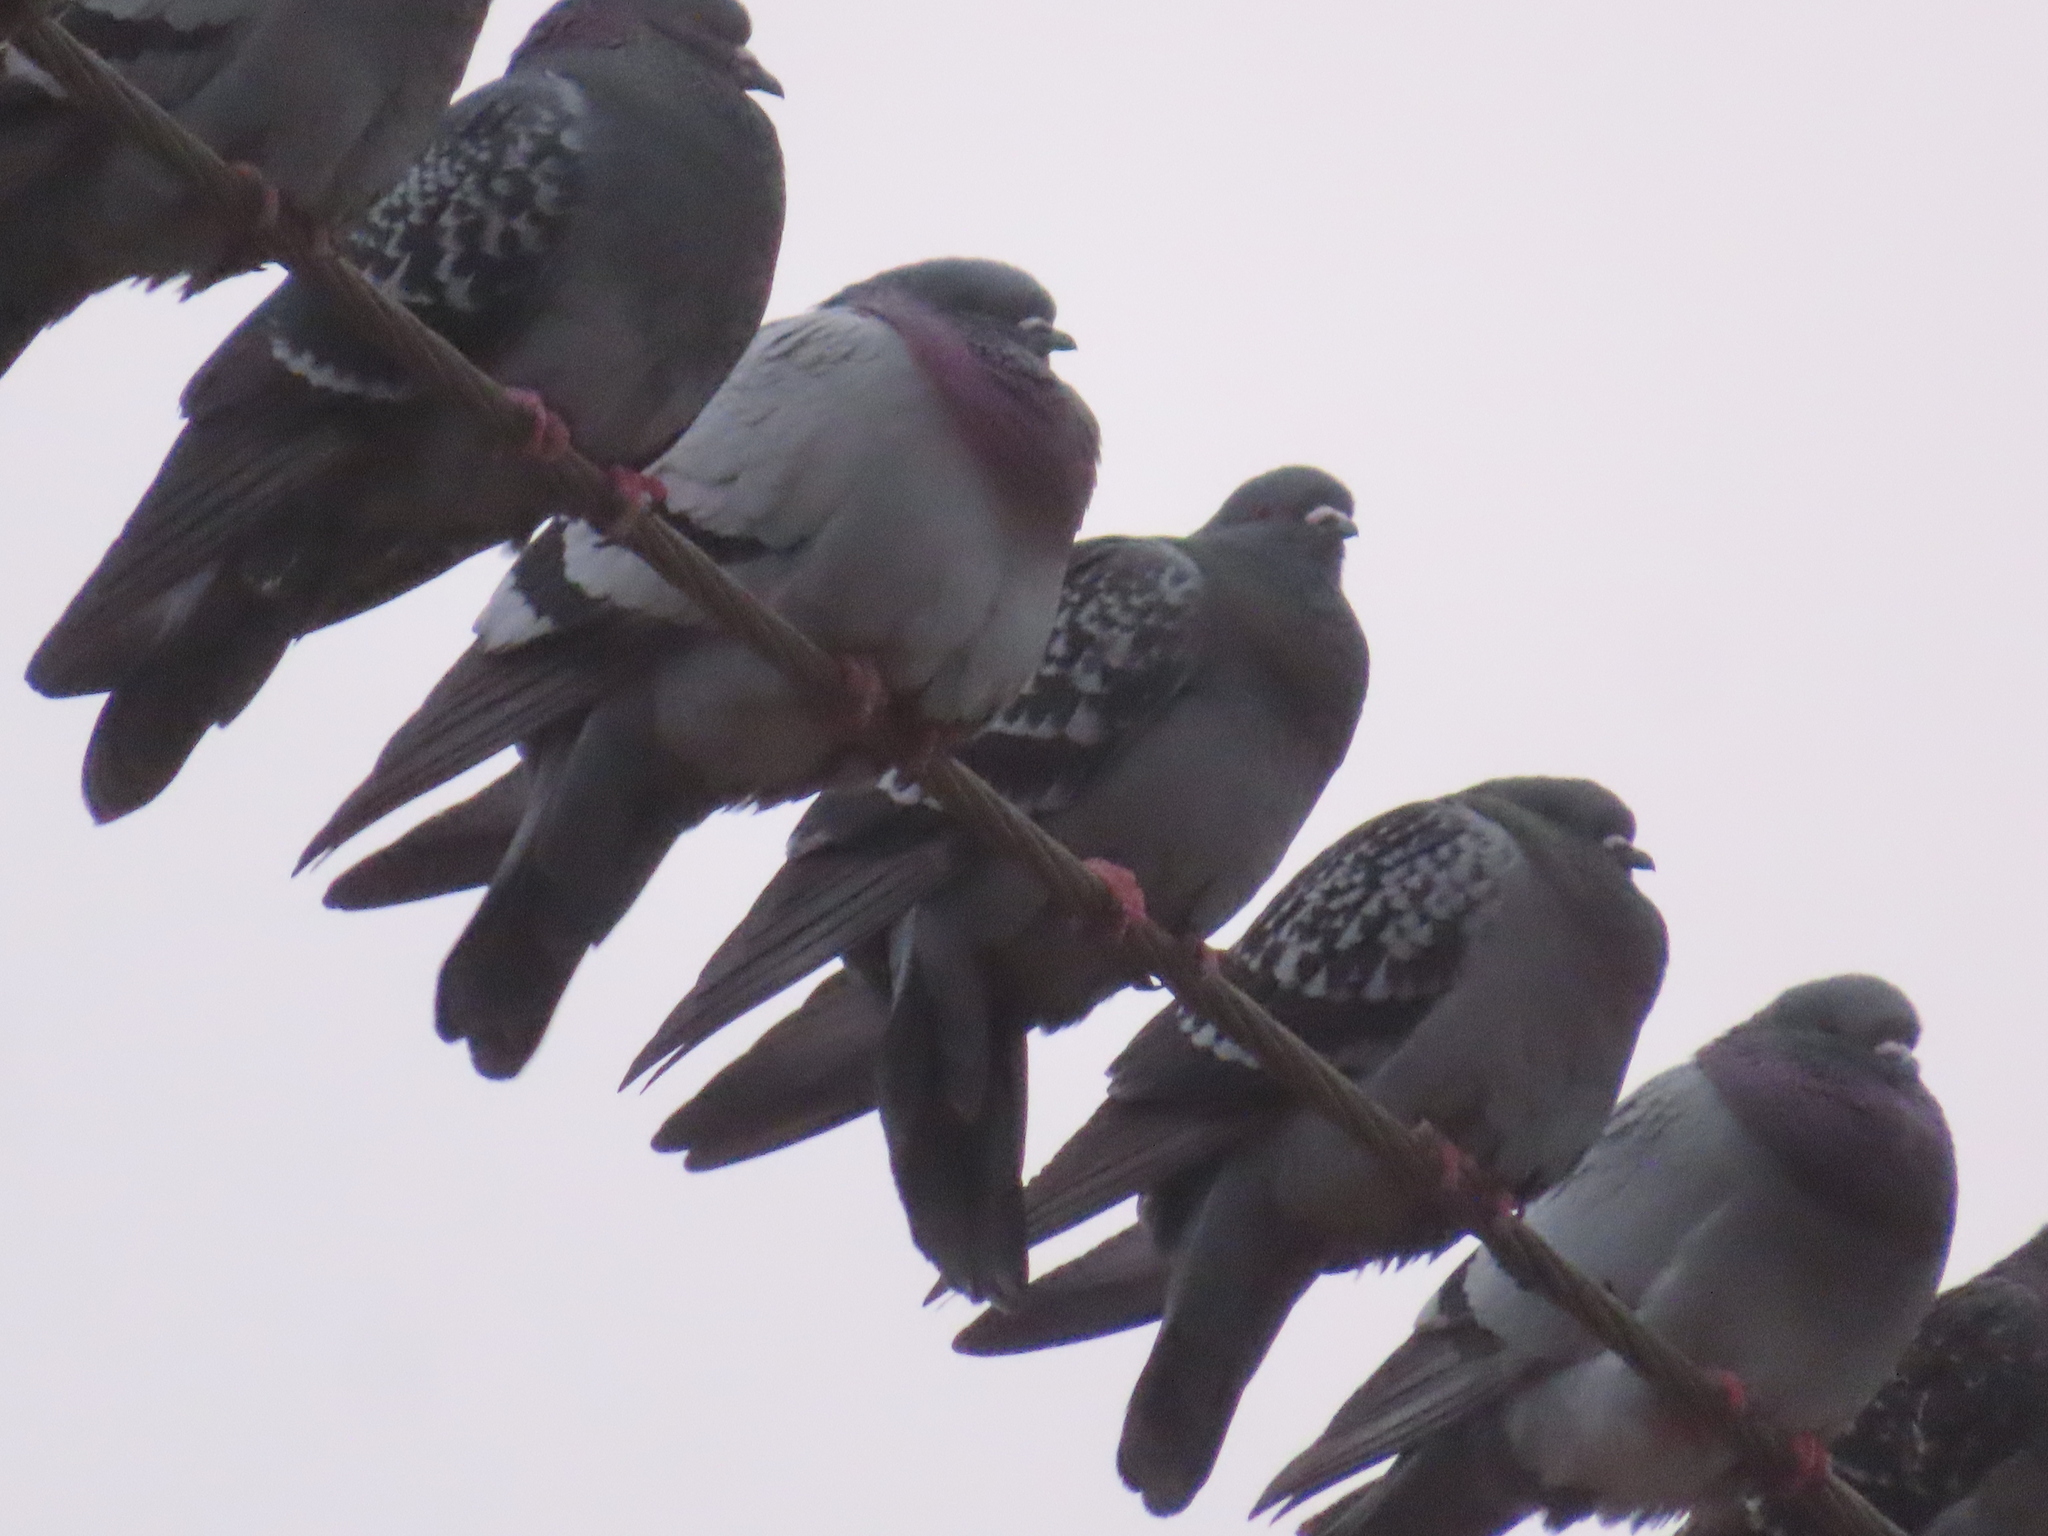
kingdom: Animalia
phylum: Chordata
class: Aves
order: Columbiformes
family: Columbidae
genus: Columba
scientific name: Columba livia
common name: Rock pigeon
